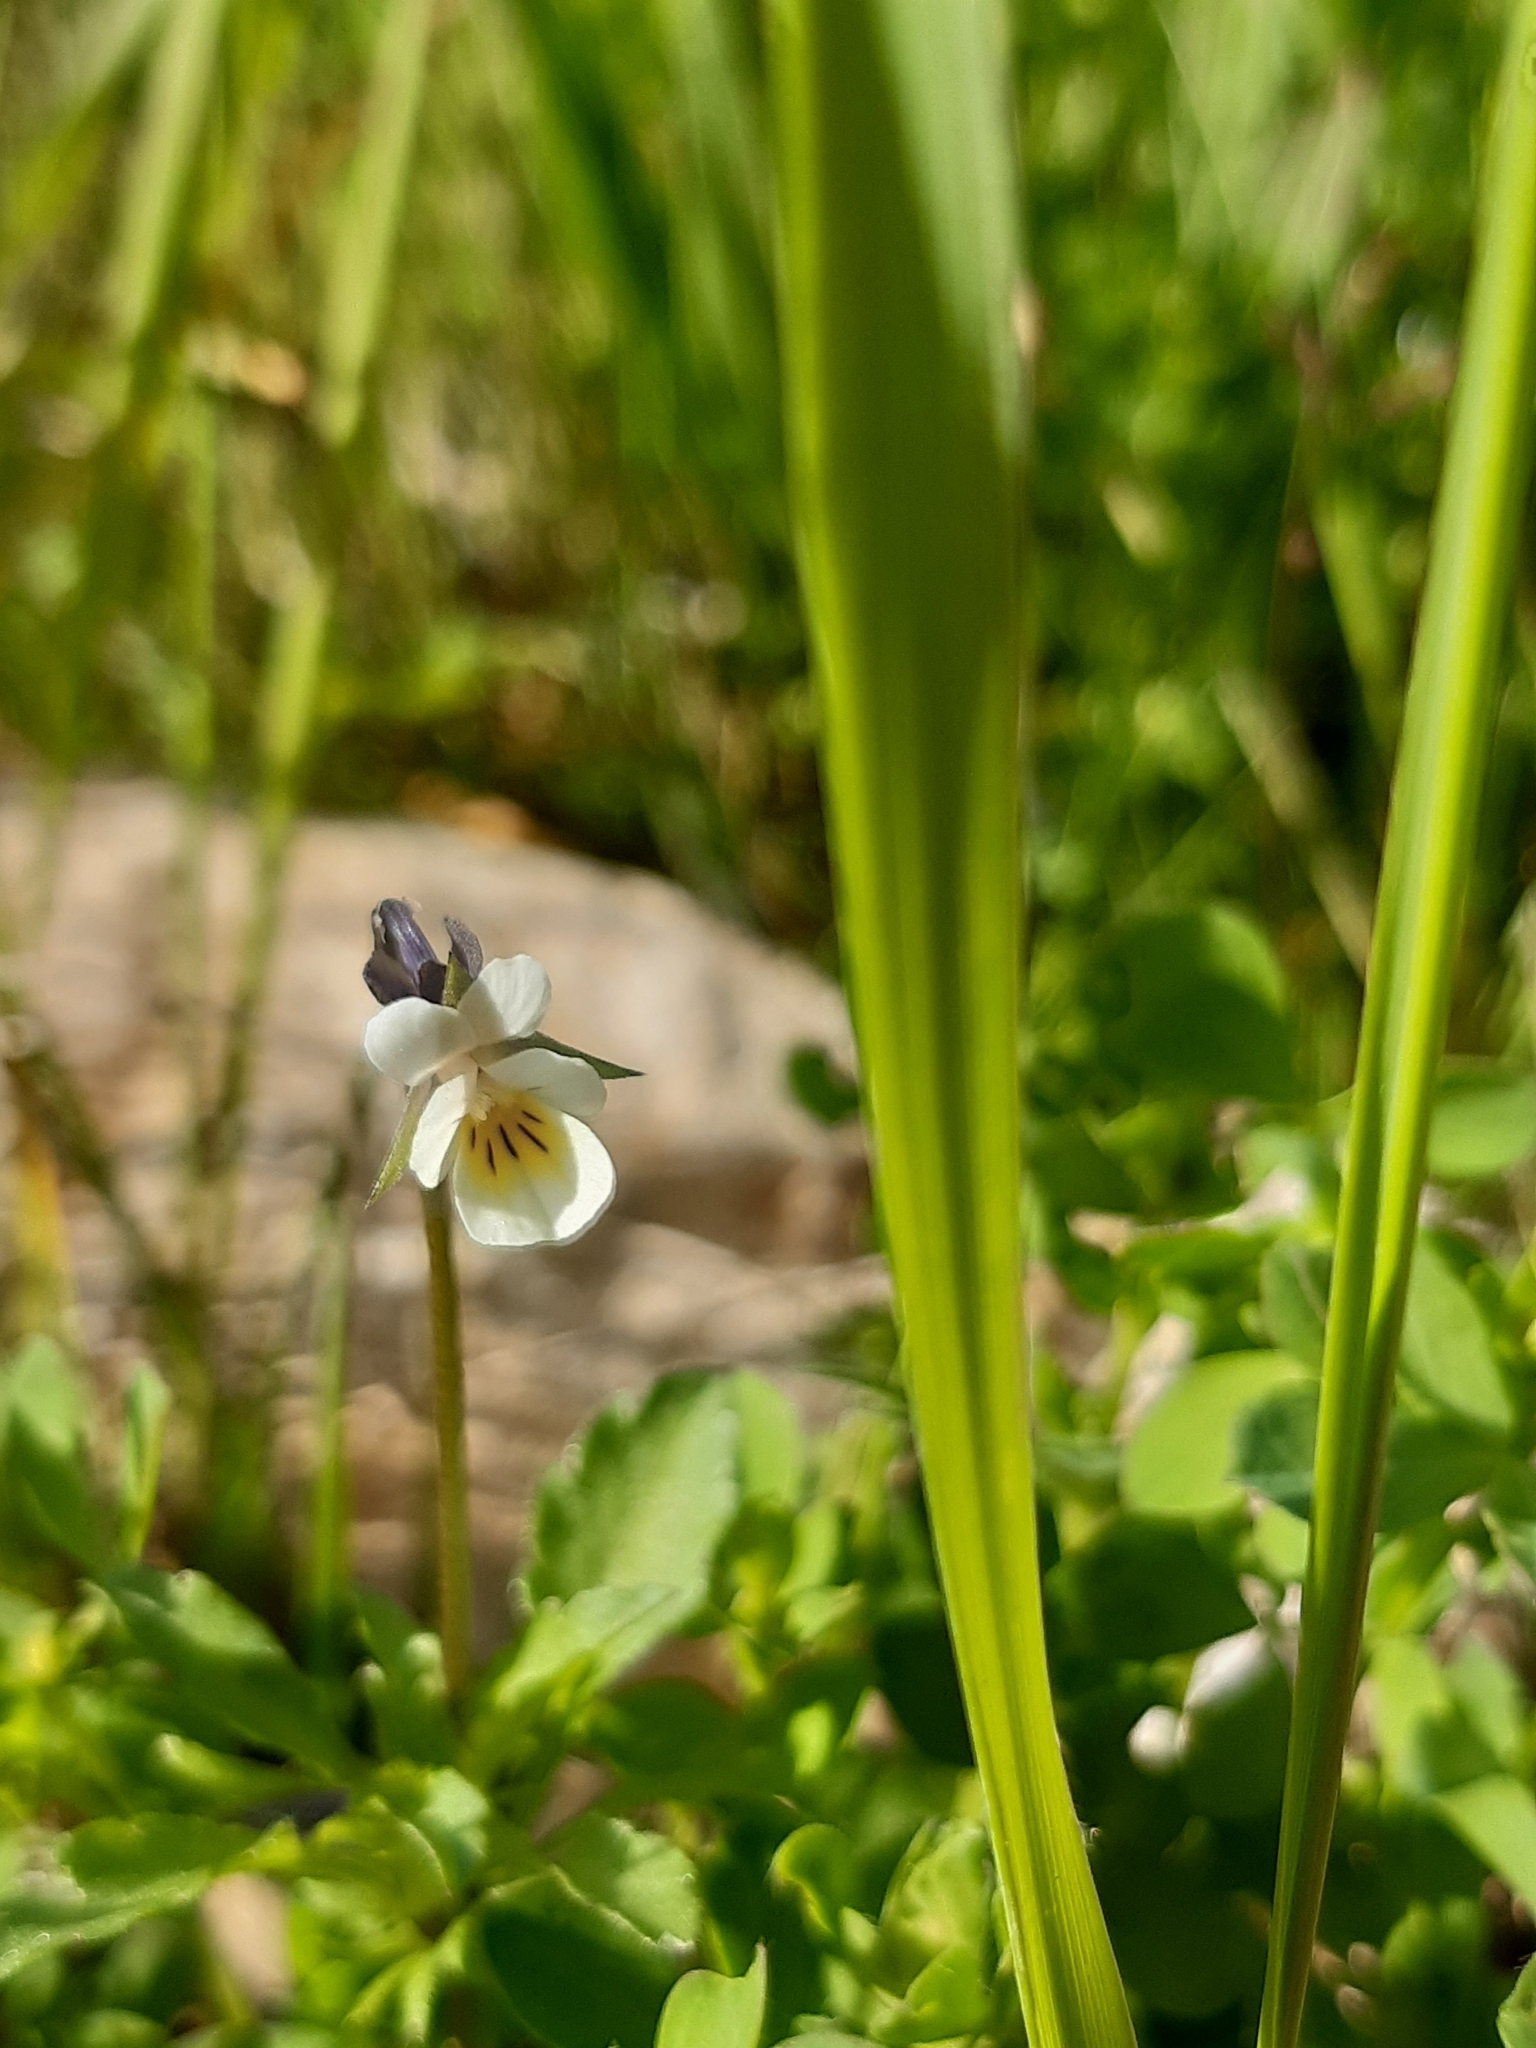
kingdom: Plantae
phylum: Tracheophyta
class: Magnoliopsida
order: Malpighiales
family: Violaceae
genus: Viola
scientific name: Viola arvensis
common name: Field pansy
